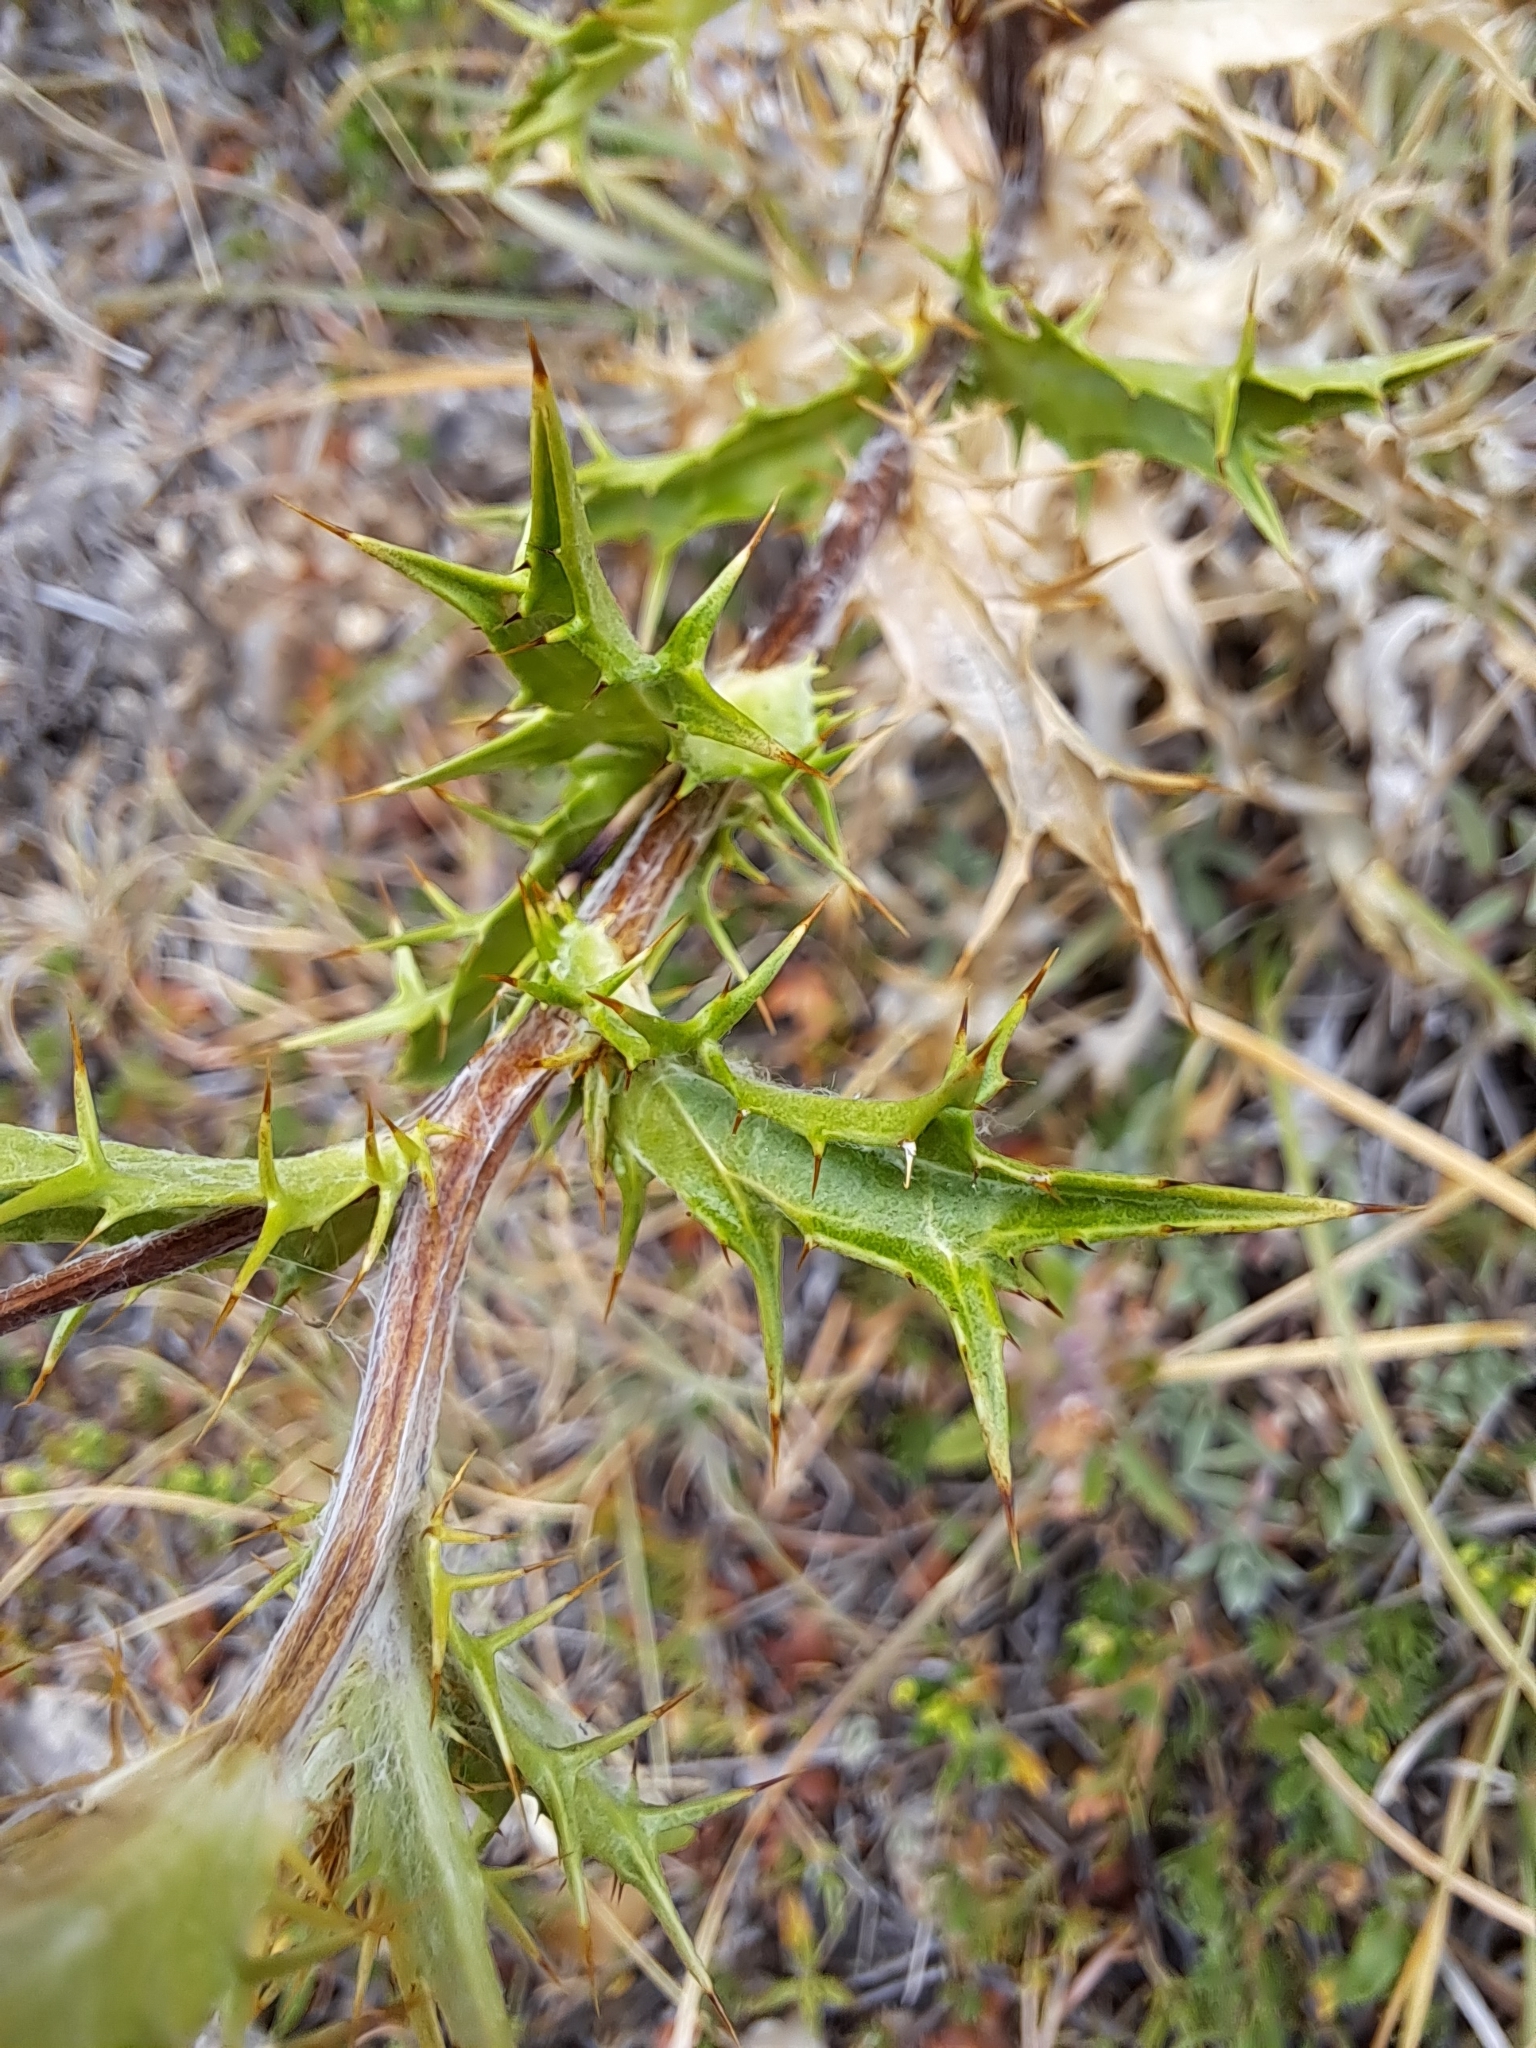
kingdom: Plantae
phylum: Tracheophyta
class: Magnoliopsida
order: Asterales
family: Asteraceae
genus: Carlina
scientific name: Carlina vulgaris
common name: Carline thistle
